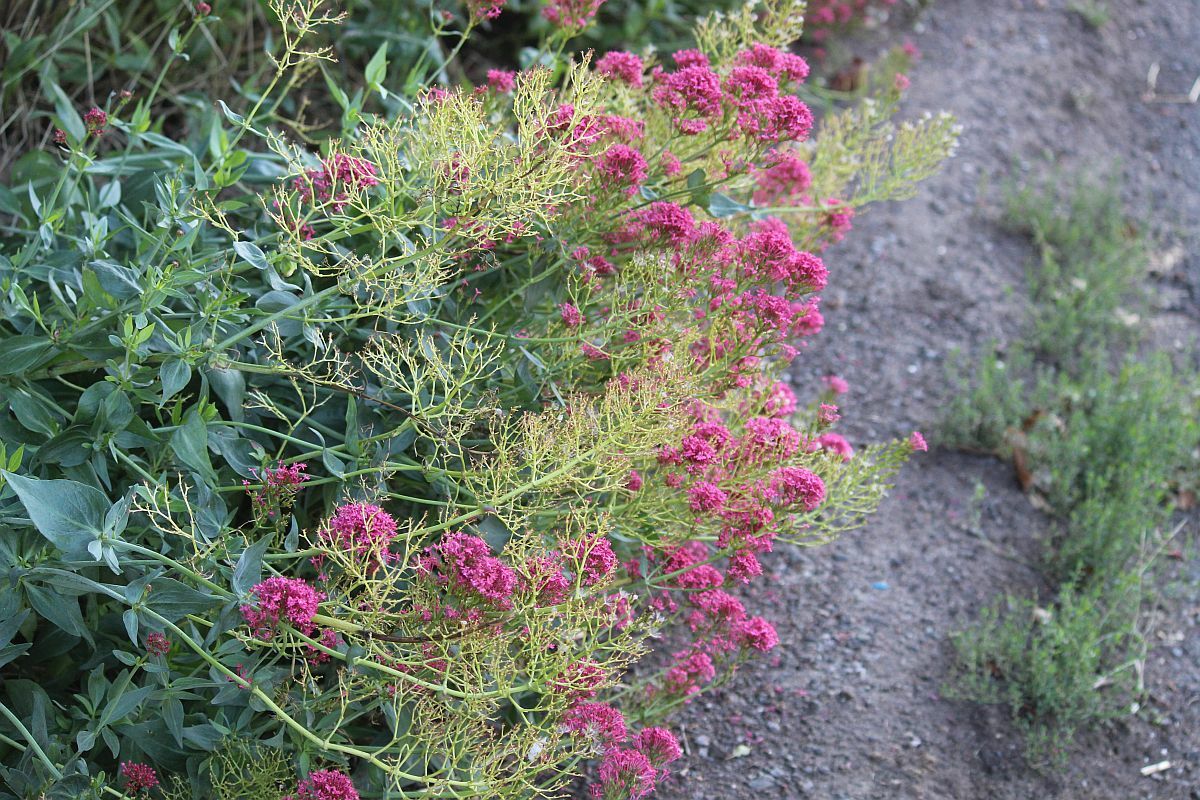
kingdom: Plantae
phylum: Tracheophyta
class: Magnoliopsida
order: Dipsacales
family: Caprifoliaceae
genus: Centranthus
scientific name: Centranthus ruber
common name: Red valerian
